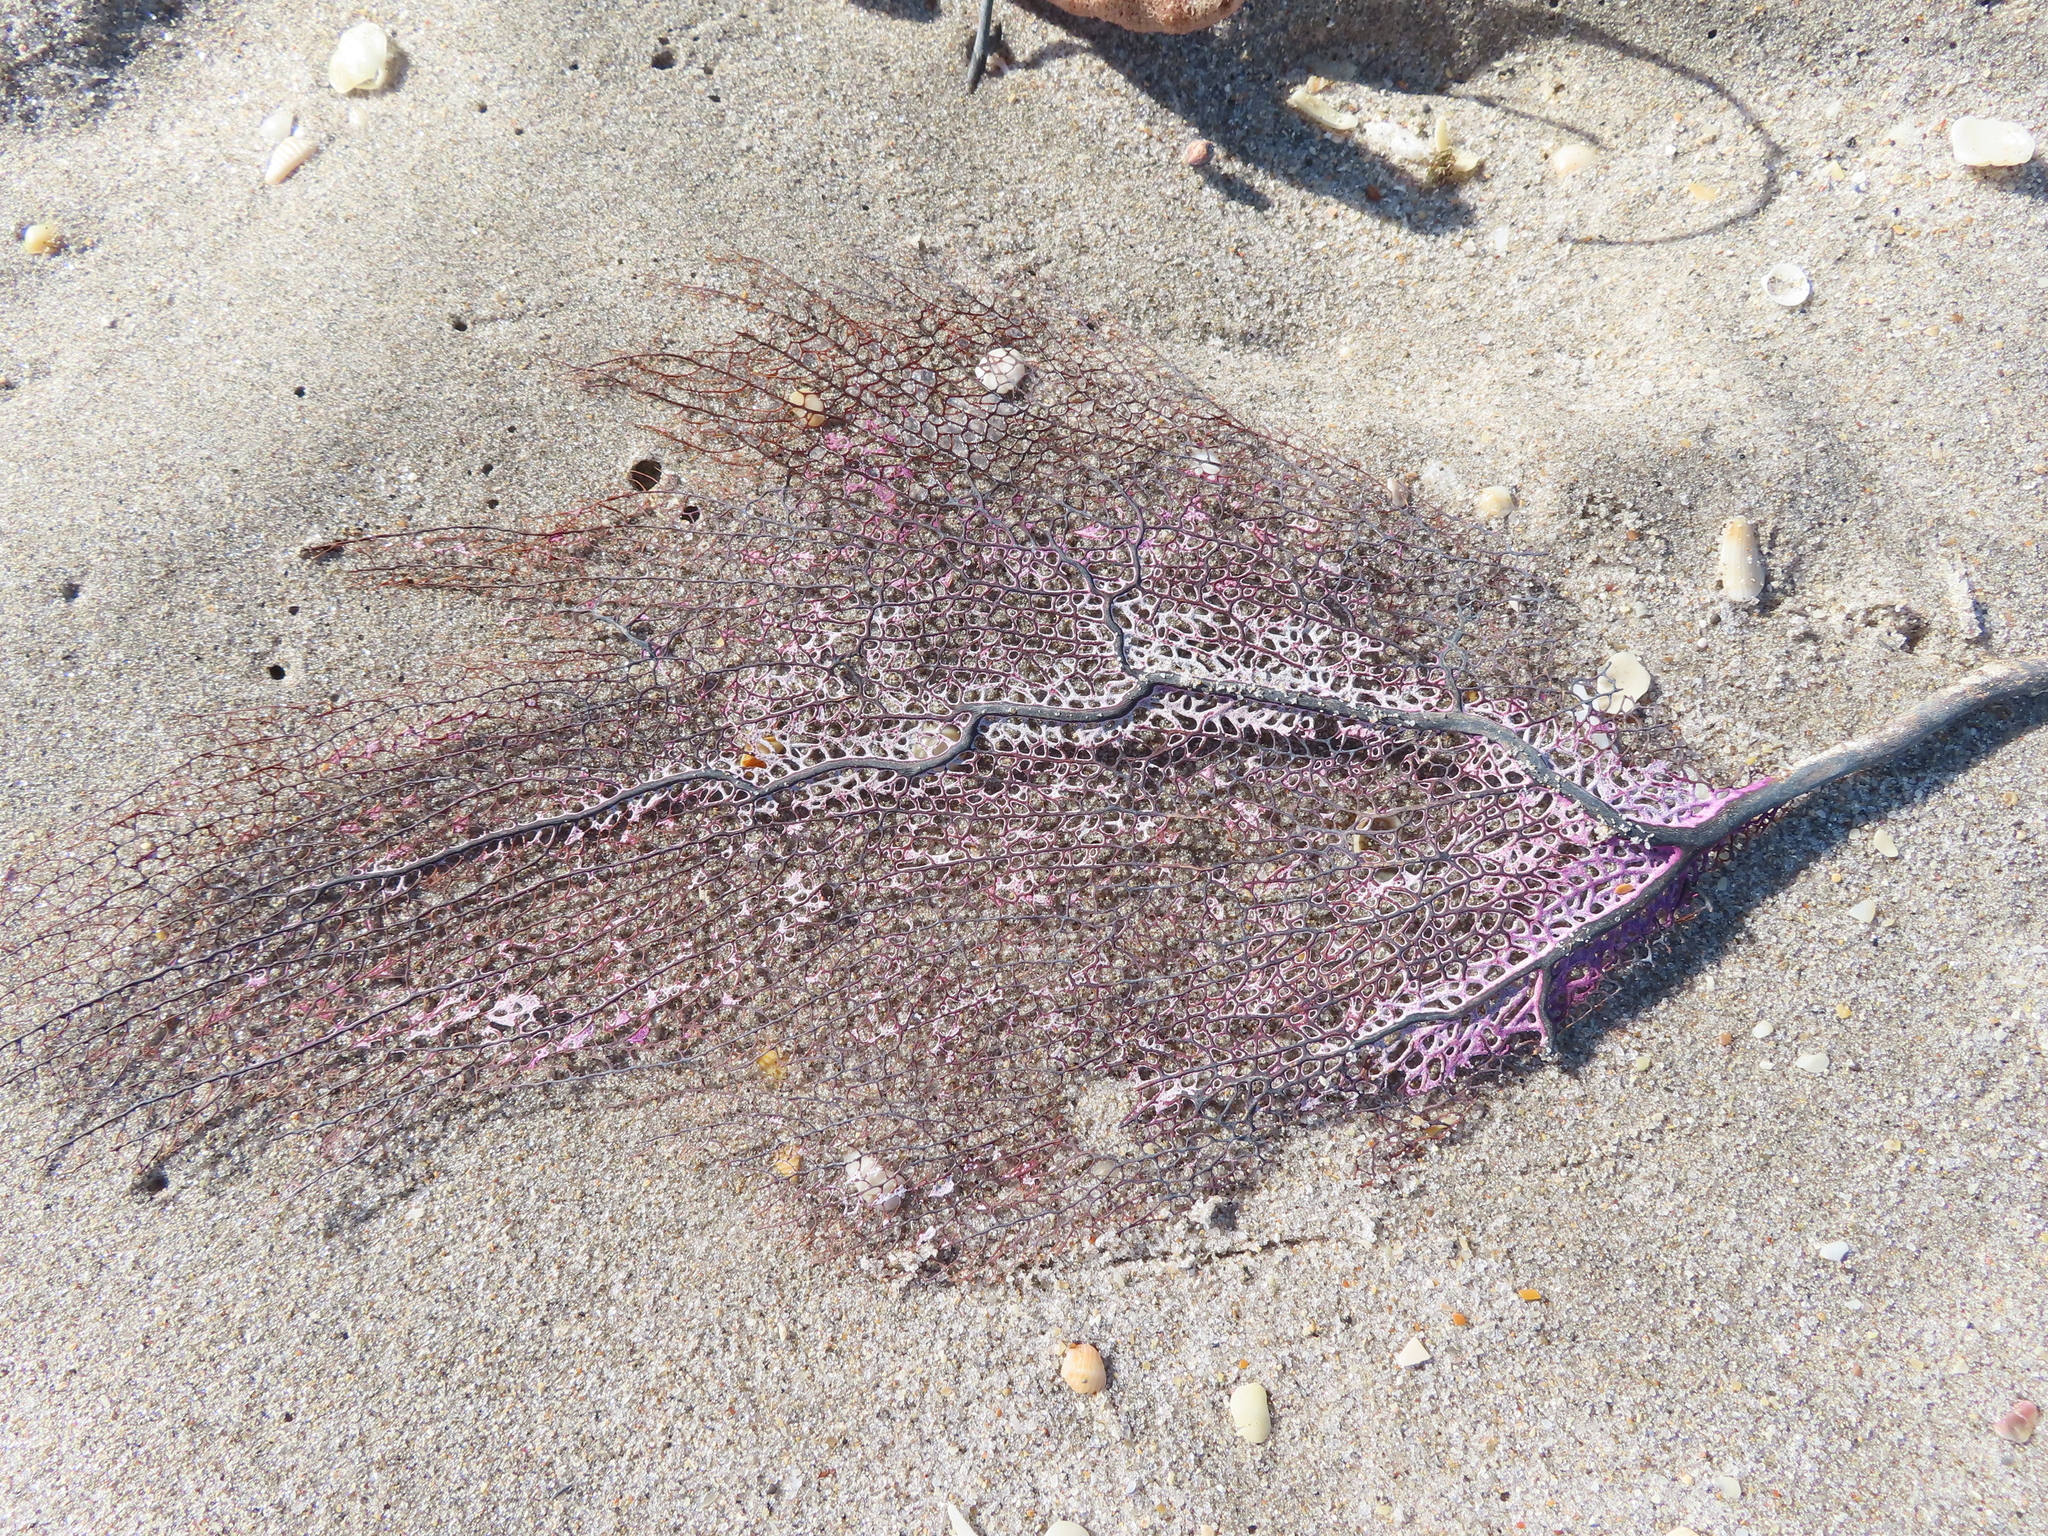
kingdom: Animalia
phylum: Cnidaria
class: Anthozoa
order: Malacalcyonacea
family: Gorgoniidae
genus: Gorgonia
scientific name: Gorgonia ventalina
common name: Common sea fan
